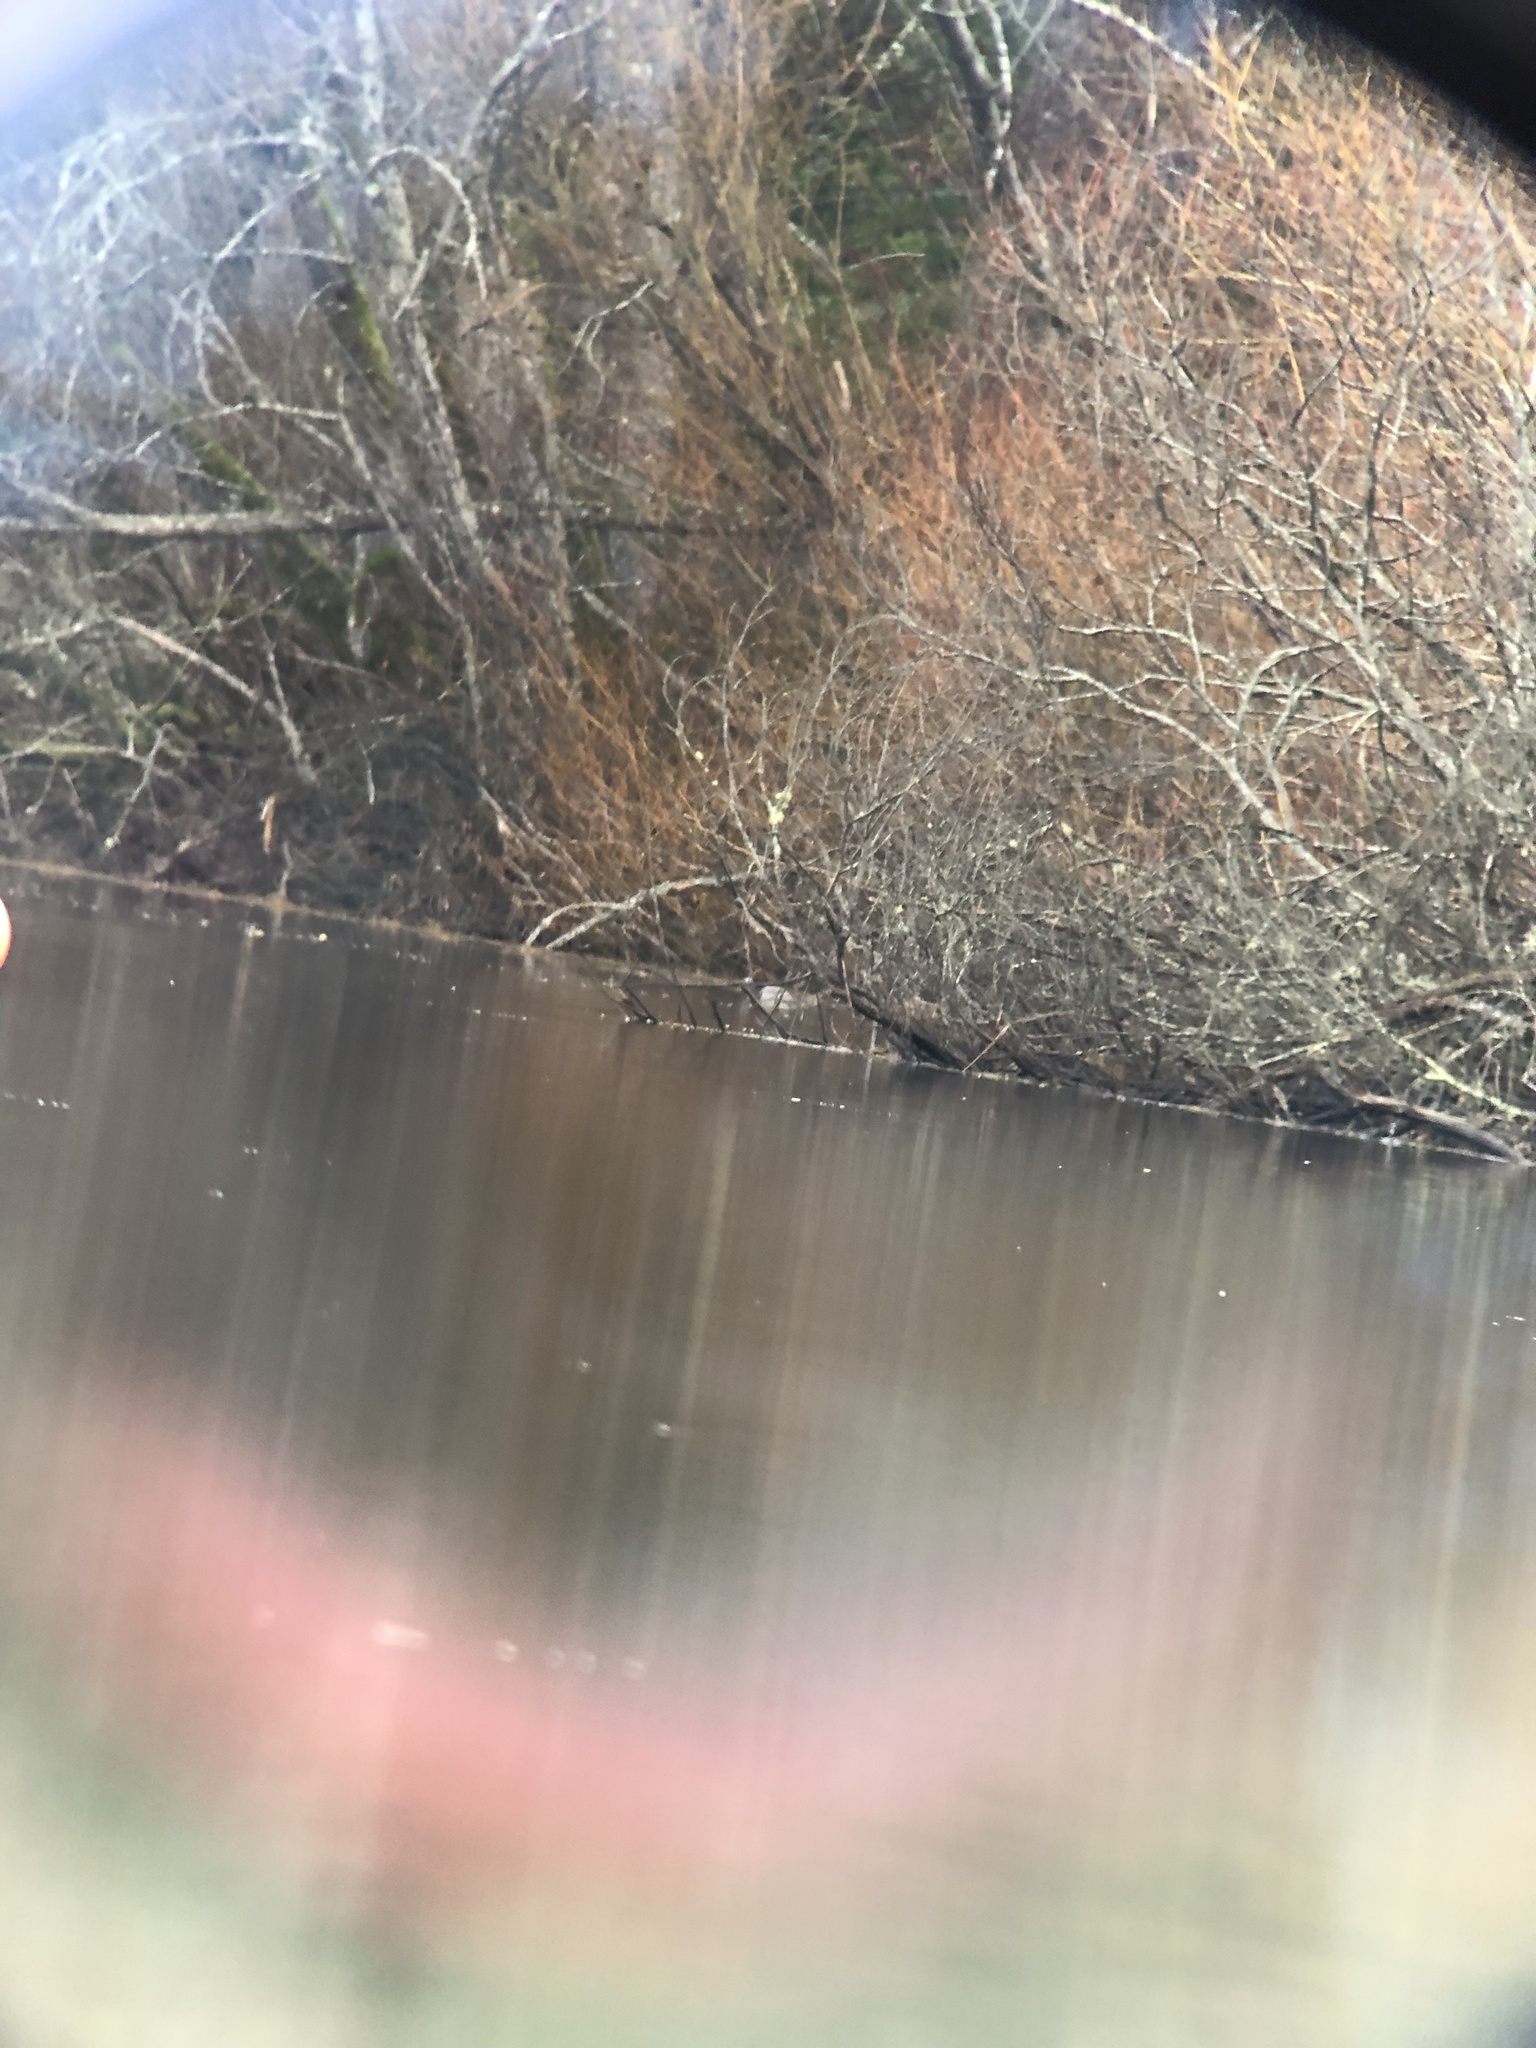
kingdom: Animalia
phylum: Chordata
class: Aves
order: Anseriformes
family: Anatidae
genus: Aythya
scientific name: Aythya americana
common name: Redhead
